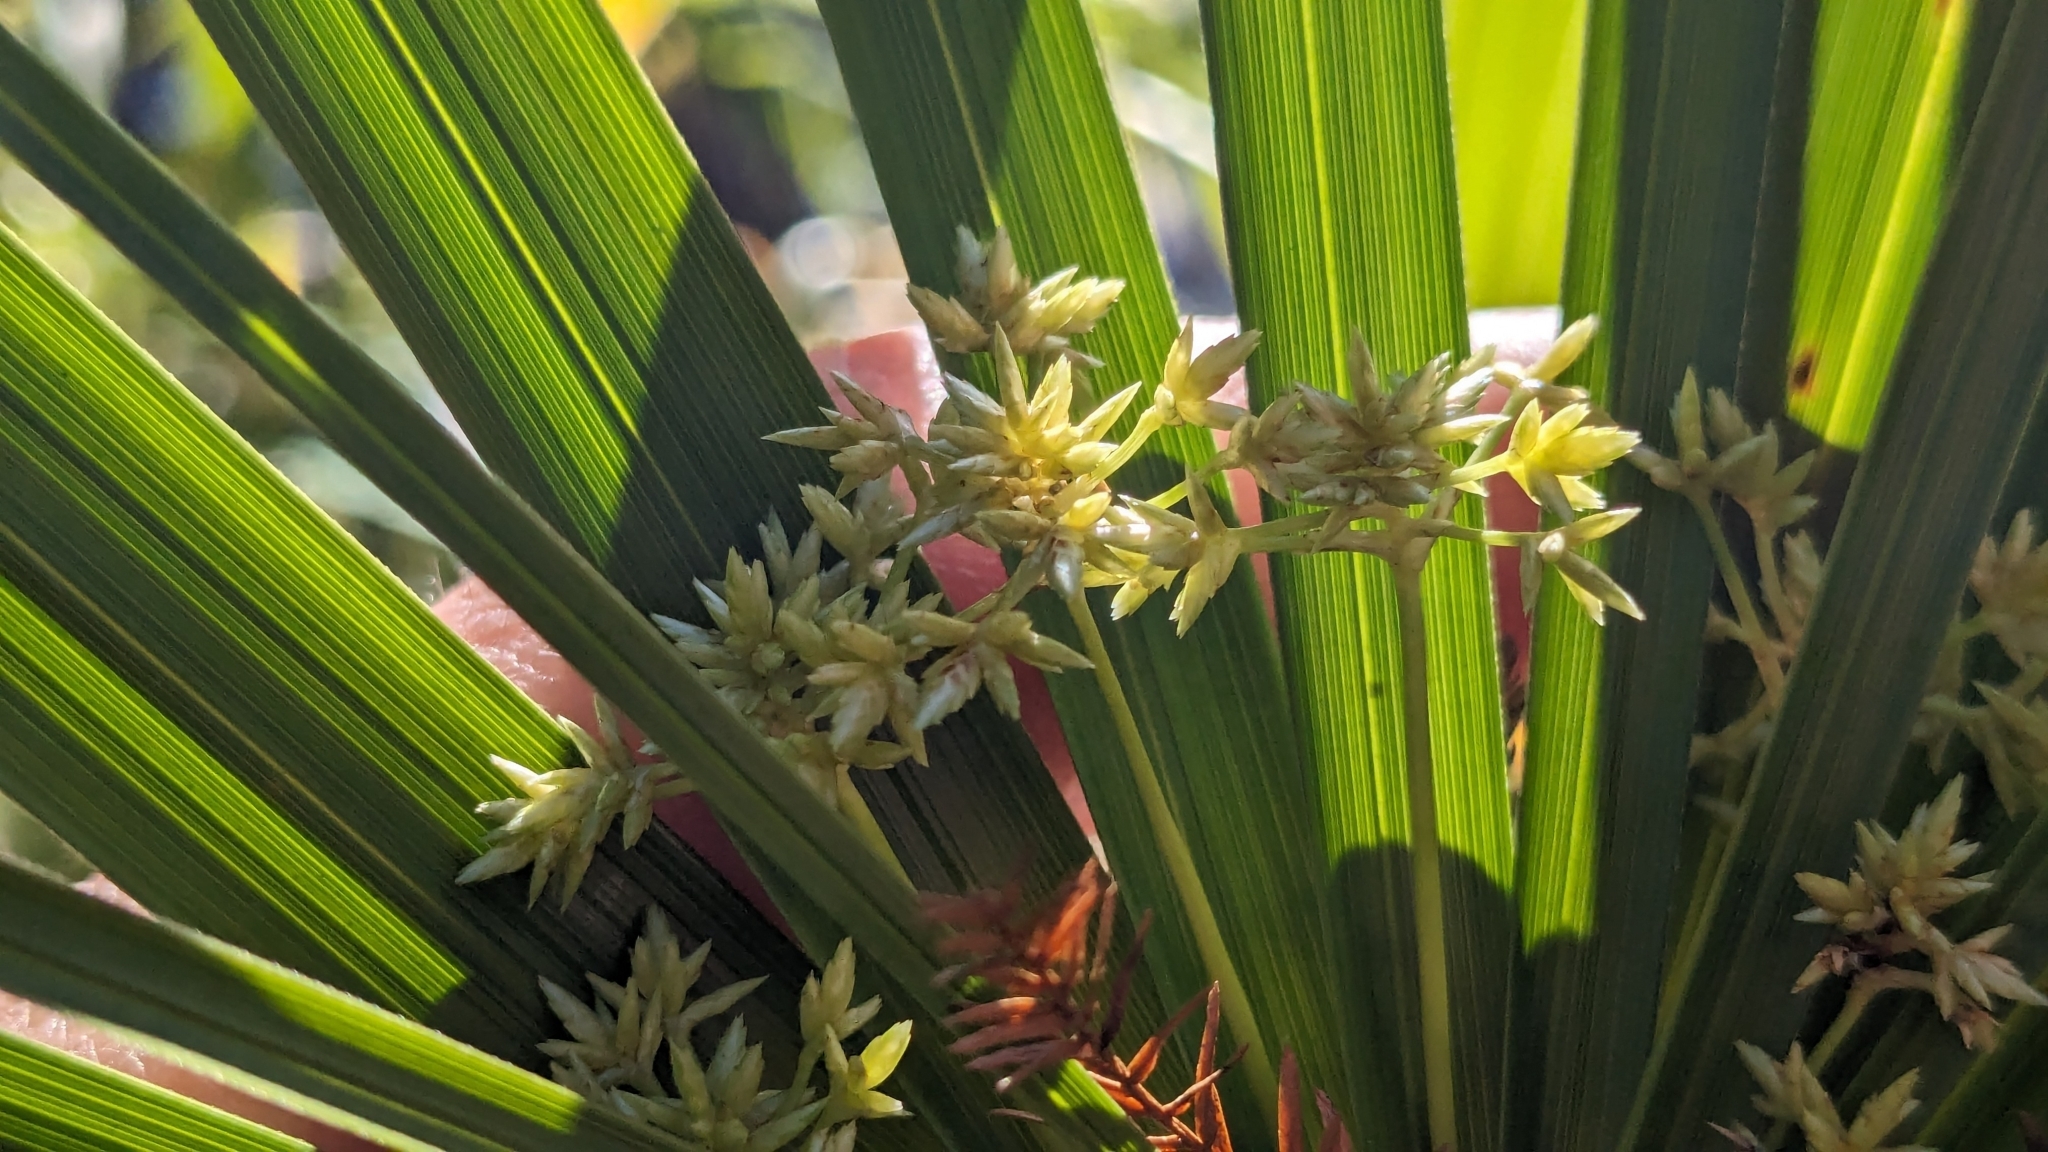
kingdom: Plantae
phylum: Tracheophyta
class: Liliopsida
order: Poales
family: Cyperaceae
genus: Cyperus
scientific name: Cyperus alternifolius
